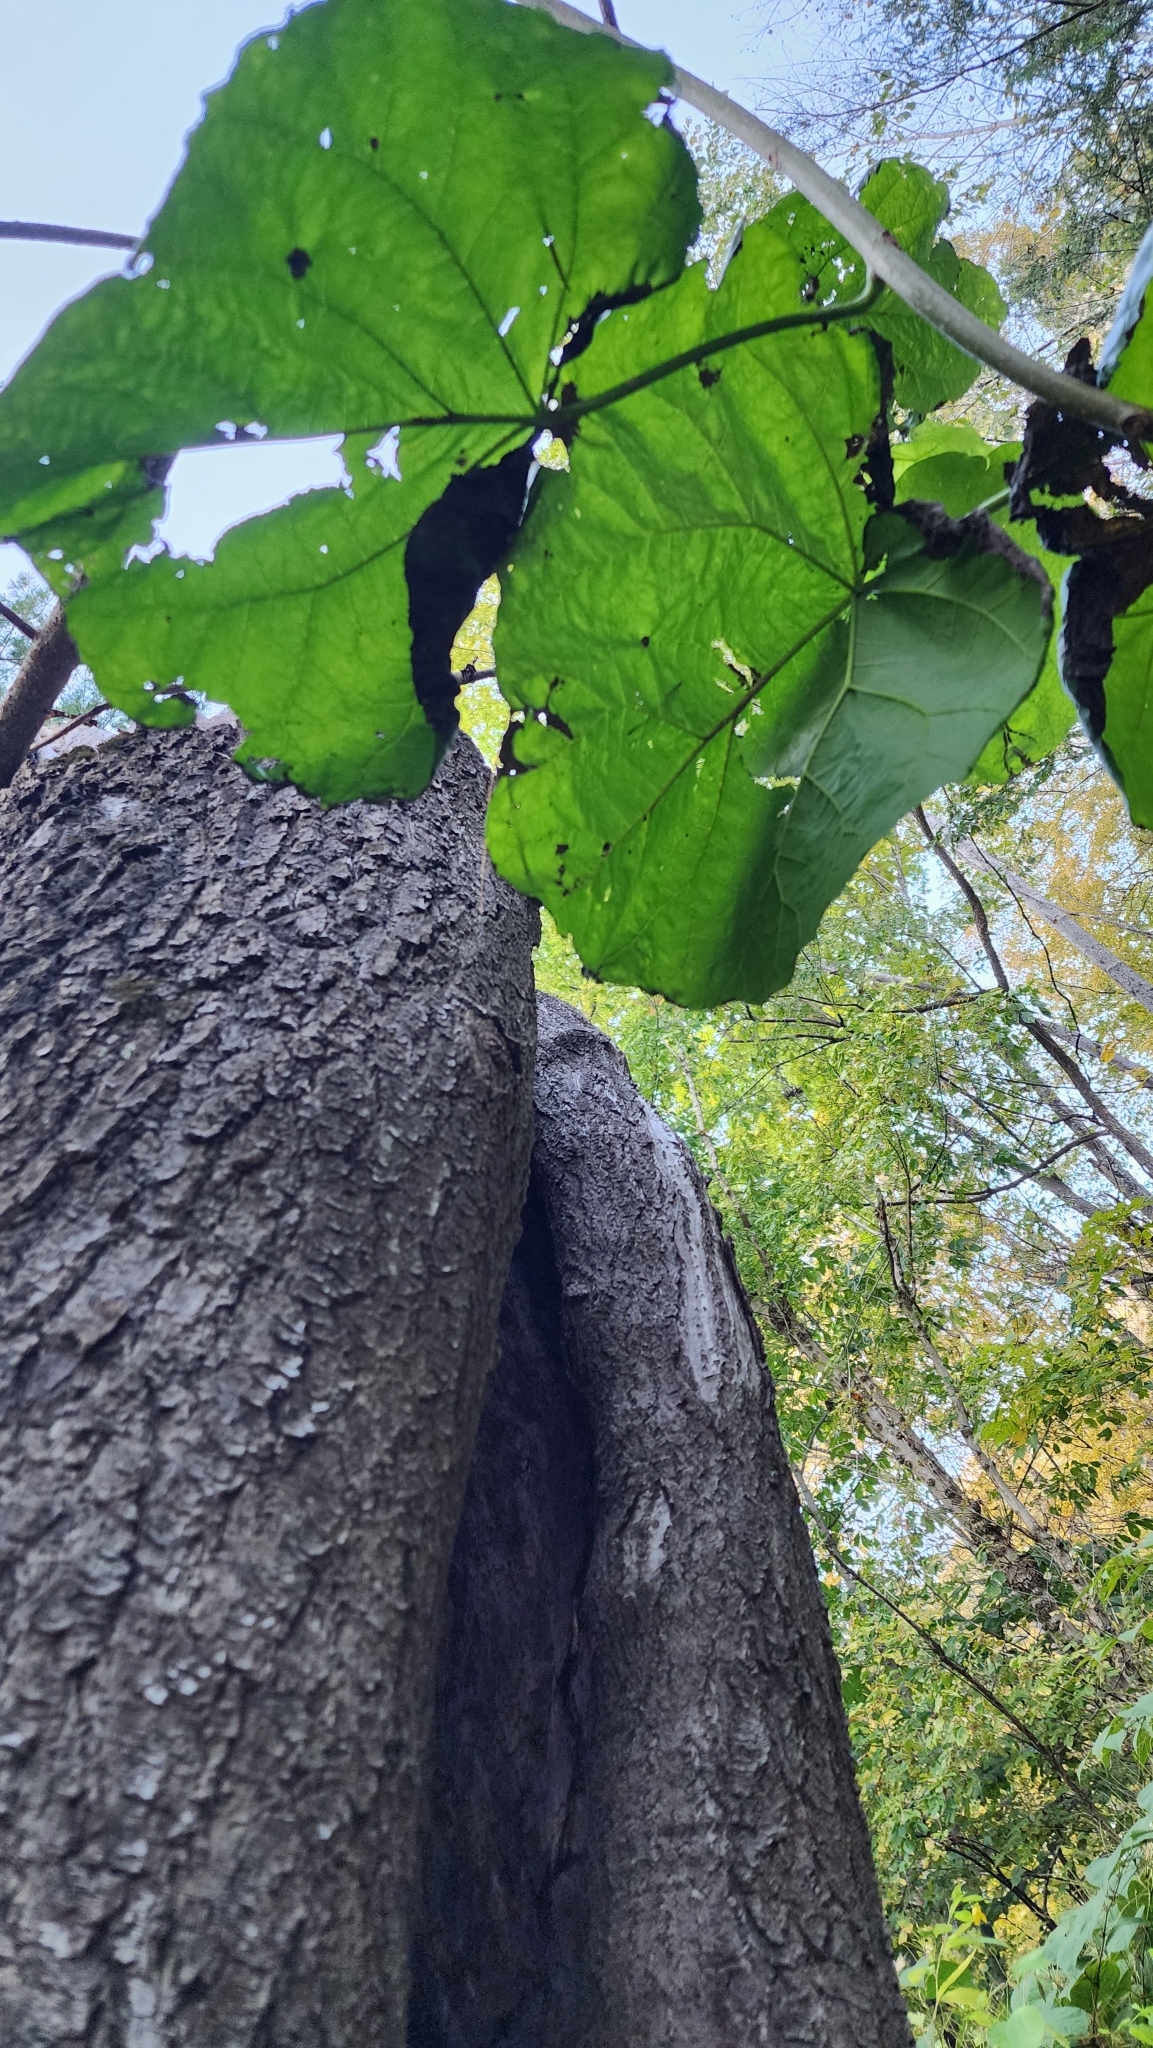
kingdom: Plantae
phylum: Tracheophyta
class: Magnoliopsida
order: Lamiales
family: Paulowniaceae
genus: Paulownia
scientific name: Paulownia tomentosa
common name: Foxglove-tree
